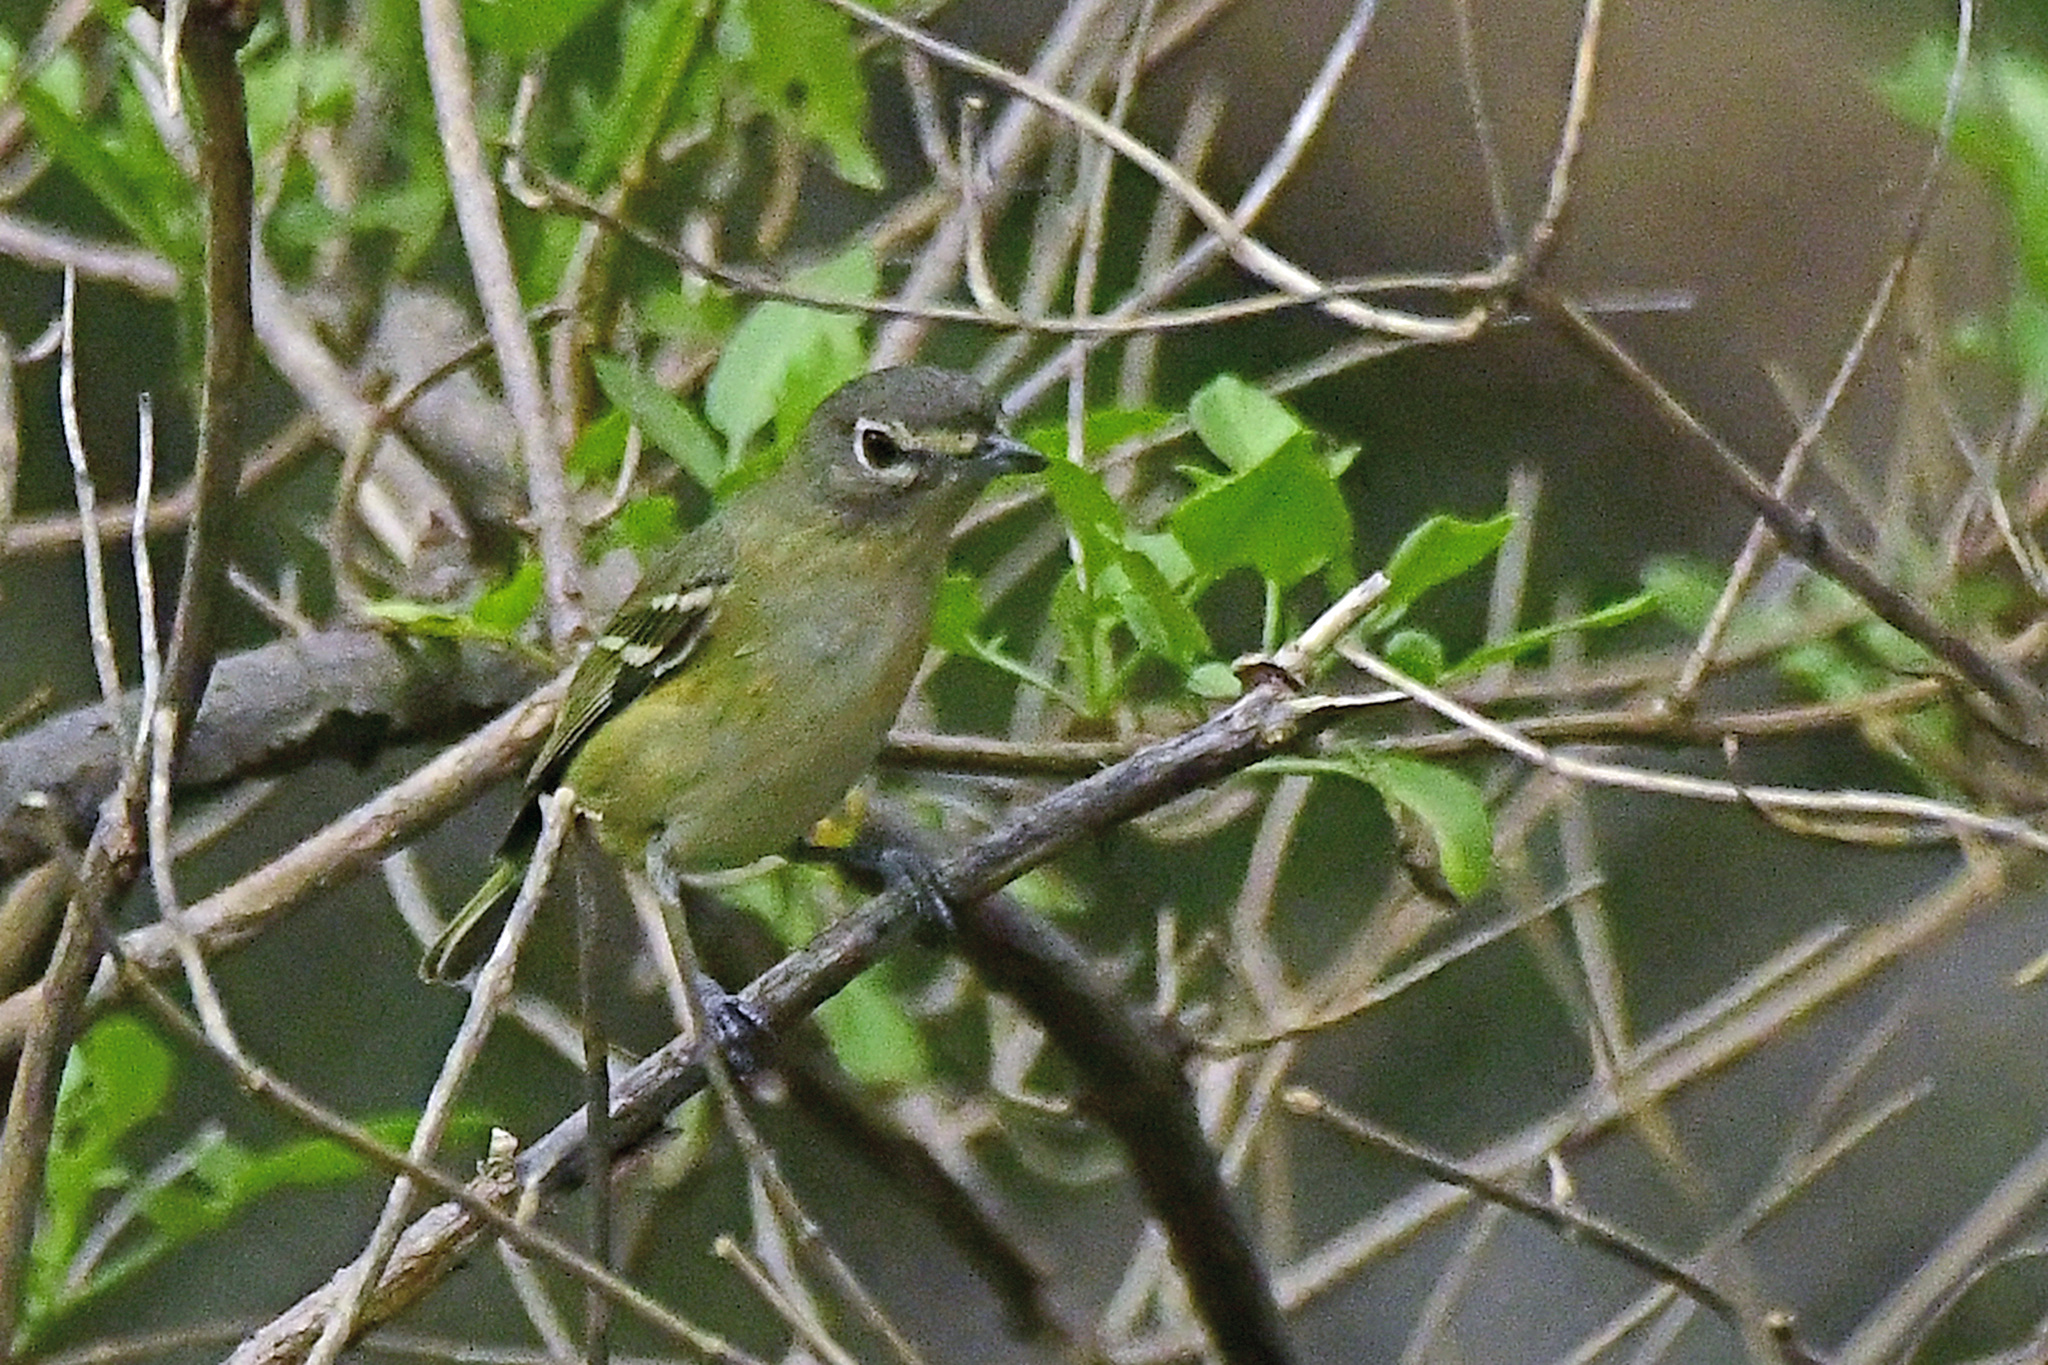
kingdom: Animalia
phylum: Chordata
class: Aves
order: Passeriformes
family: Vireonidae
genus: Vireo
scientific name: Vireo cassinii
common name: Cassin's vireo
